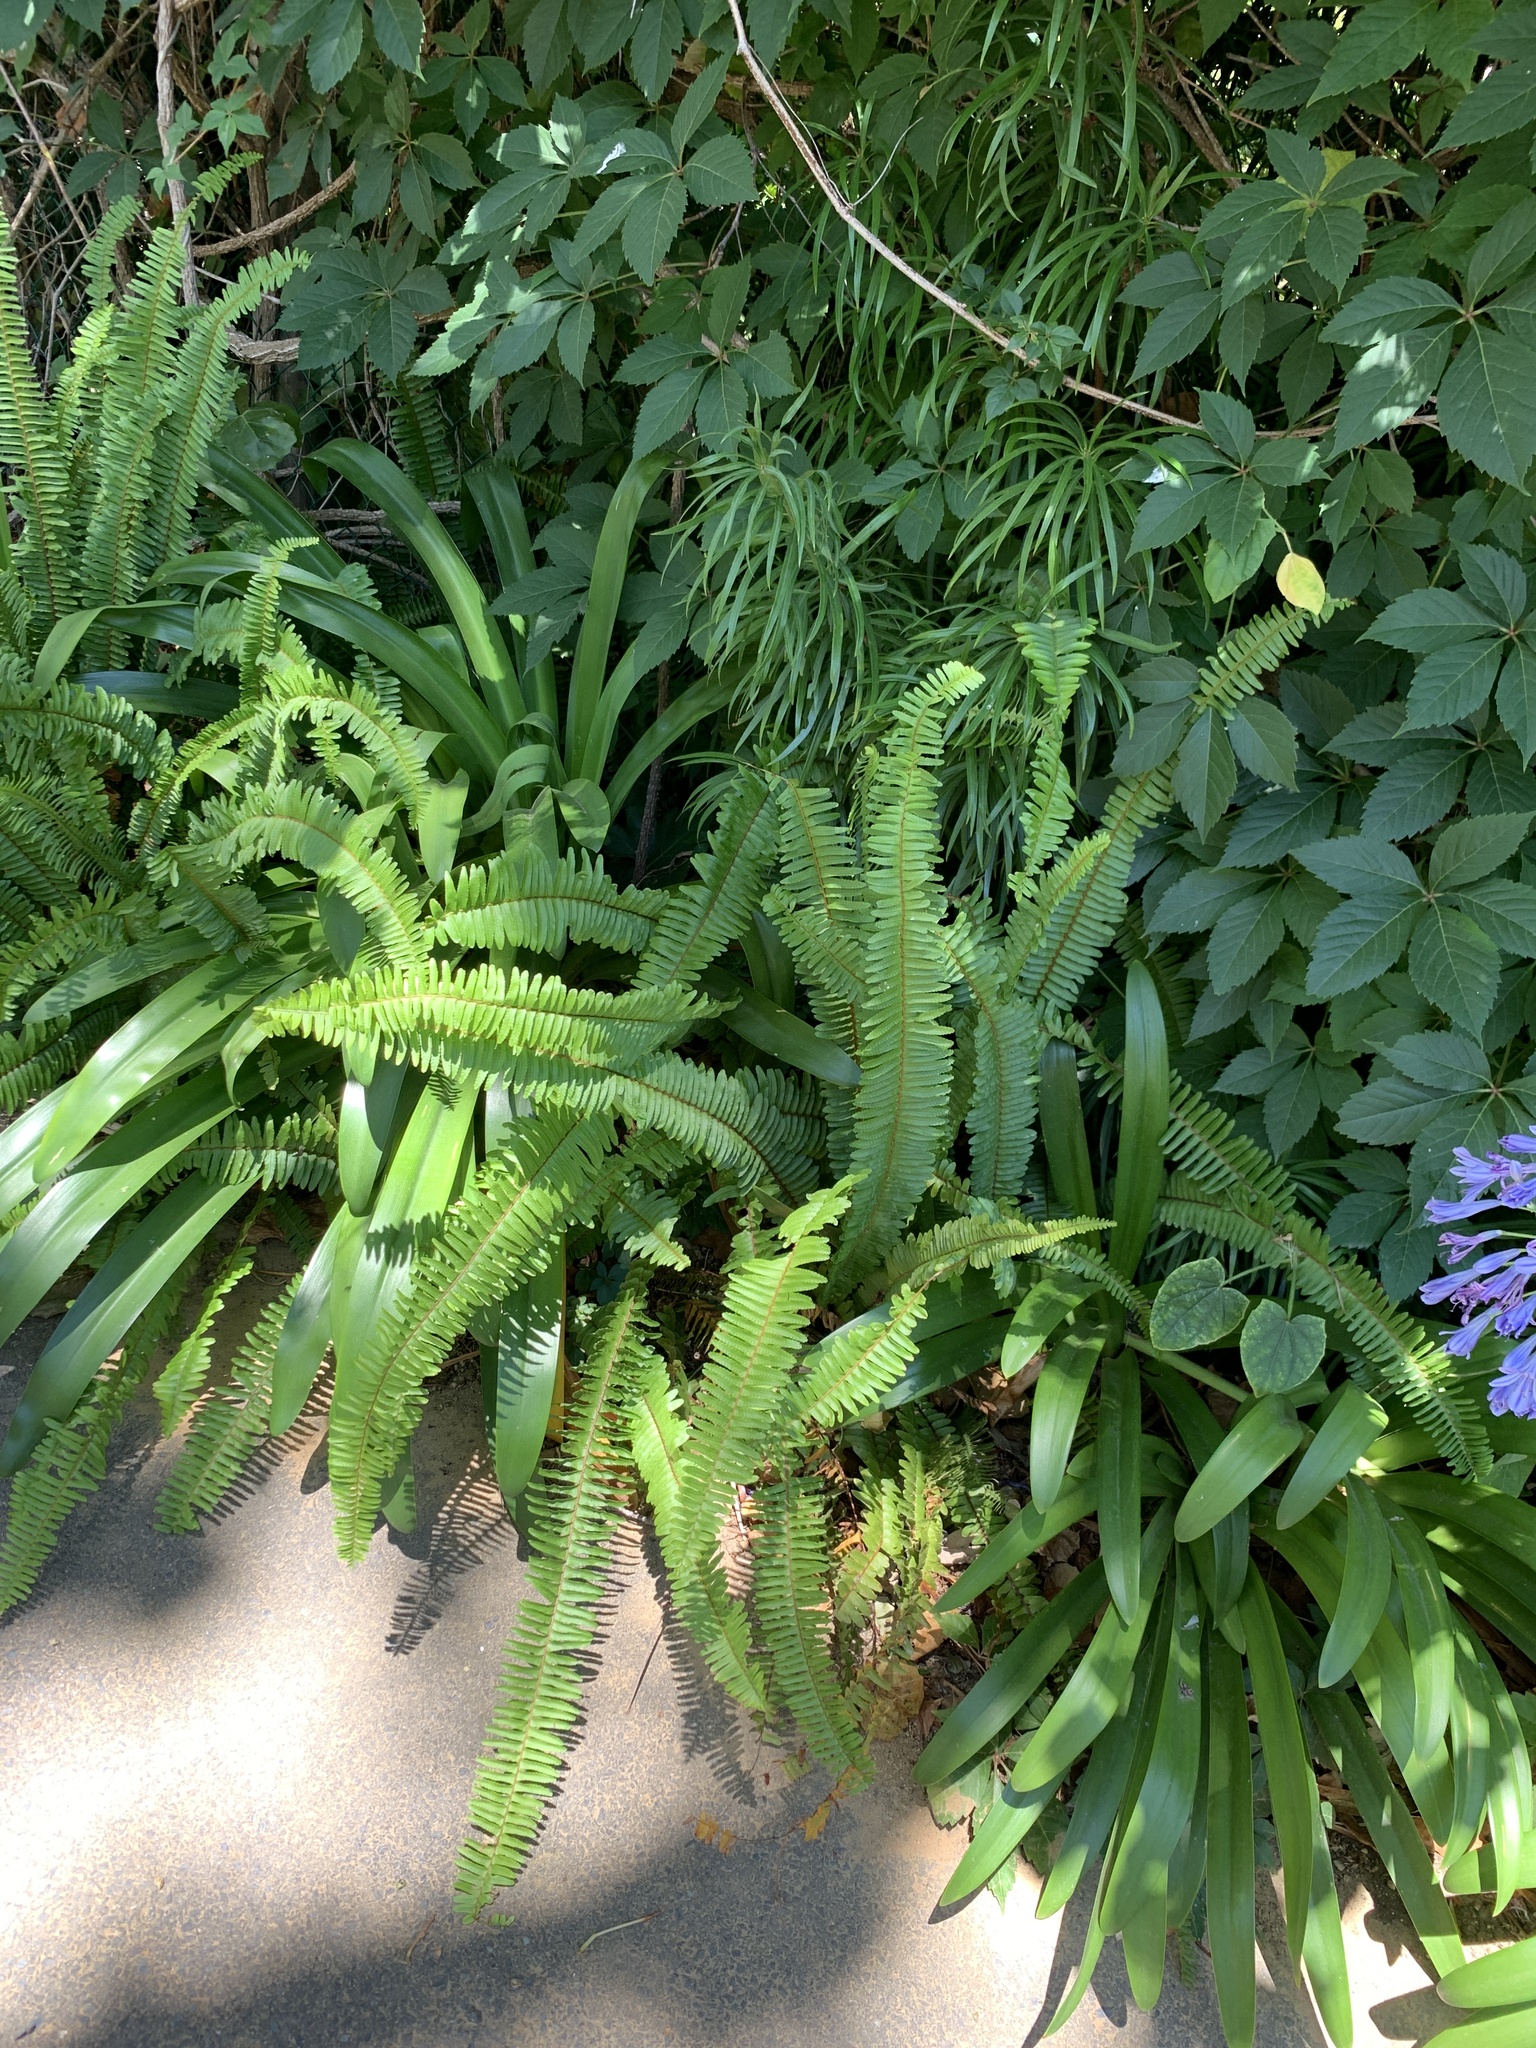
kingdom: Plantae
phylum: Tracheophyta
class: Polypodiopsida
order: Polypodiales
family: Nephrolepidaceae
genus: Nephrolepis
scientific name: Nephrolepis cordifolia
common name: Narrow swordfern
